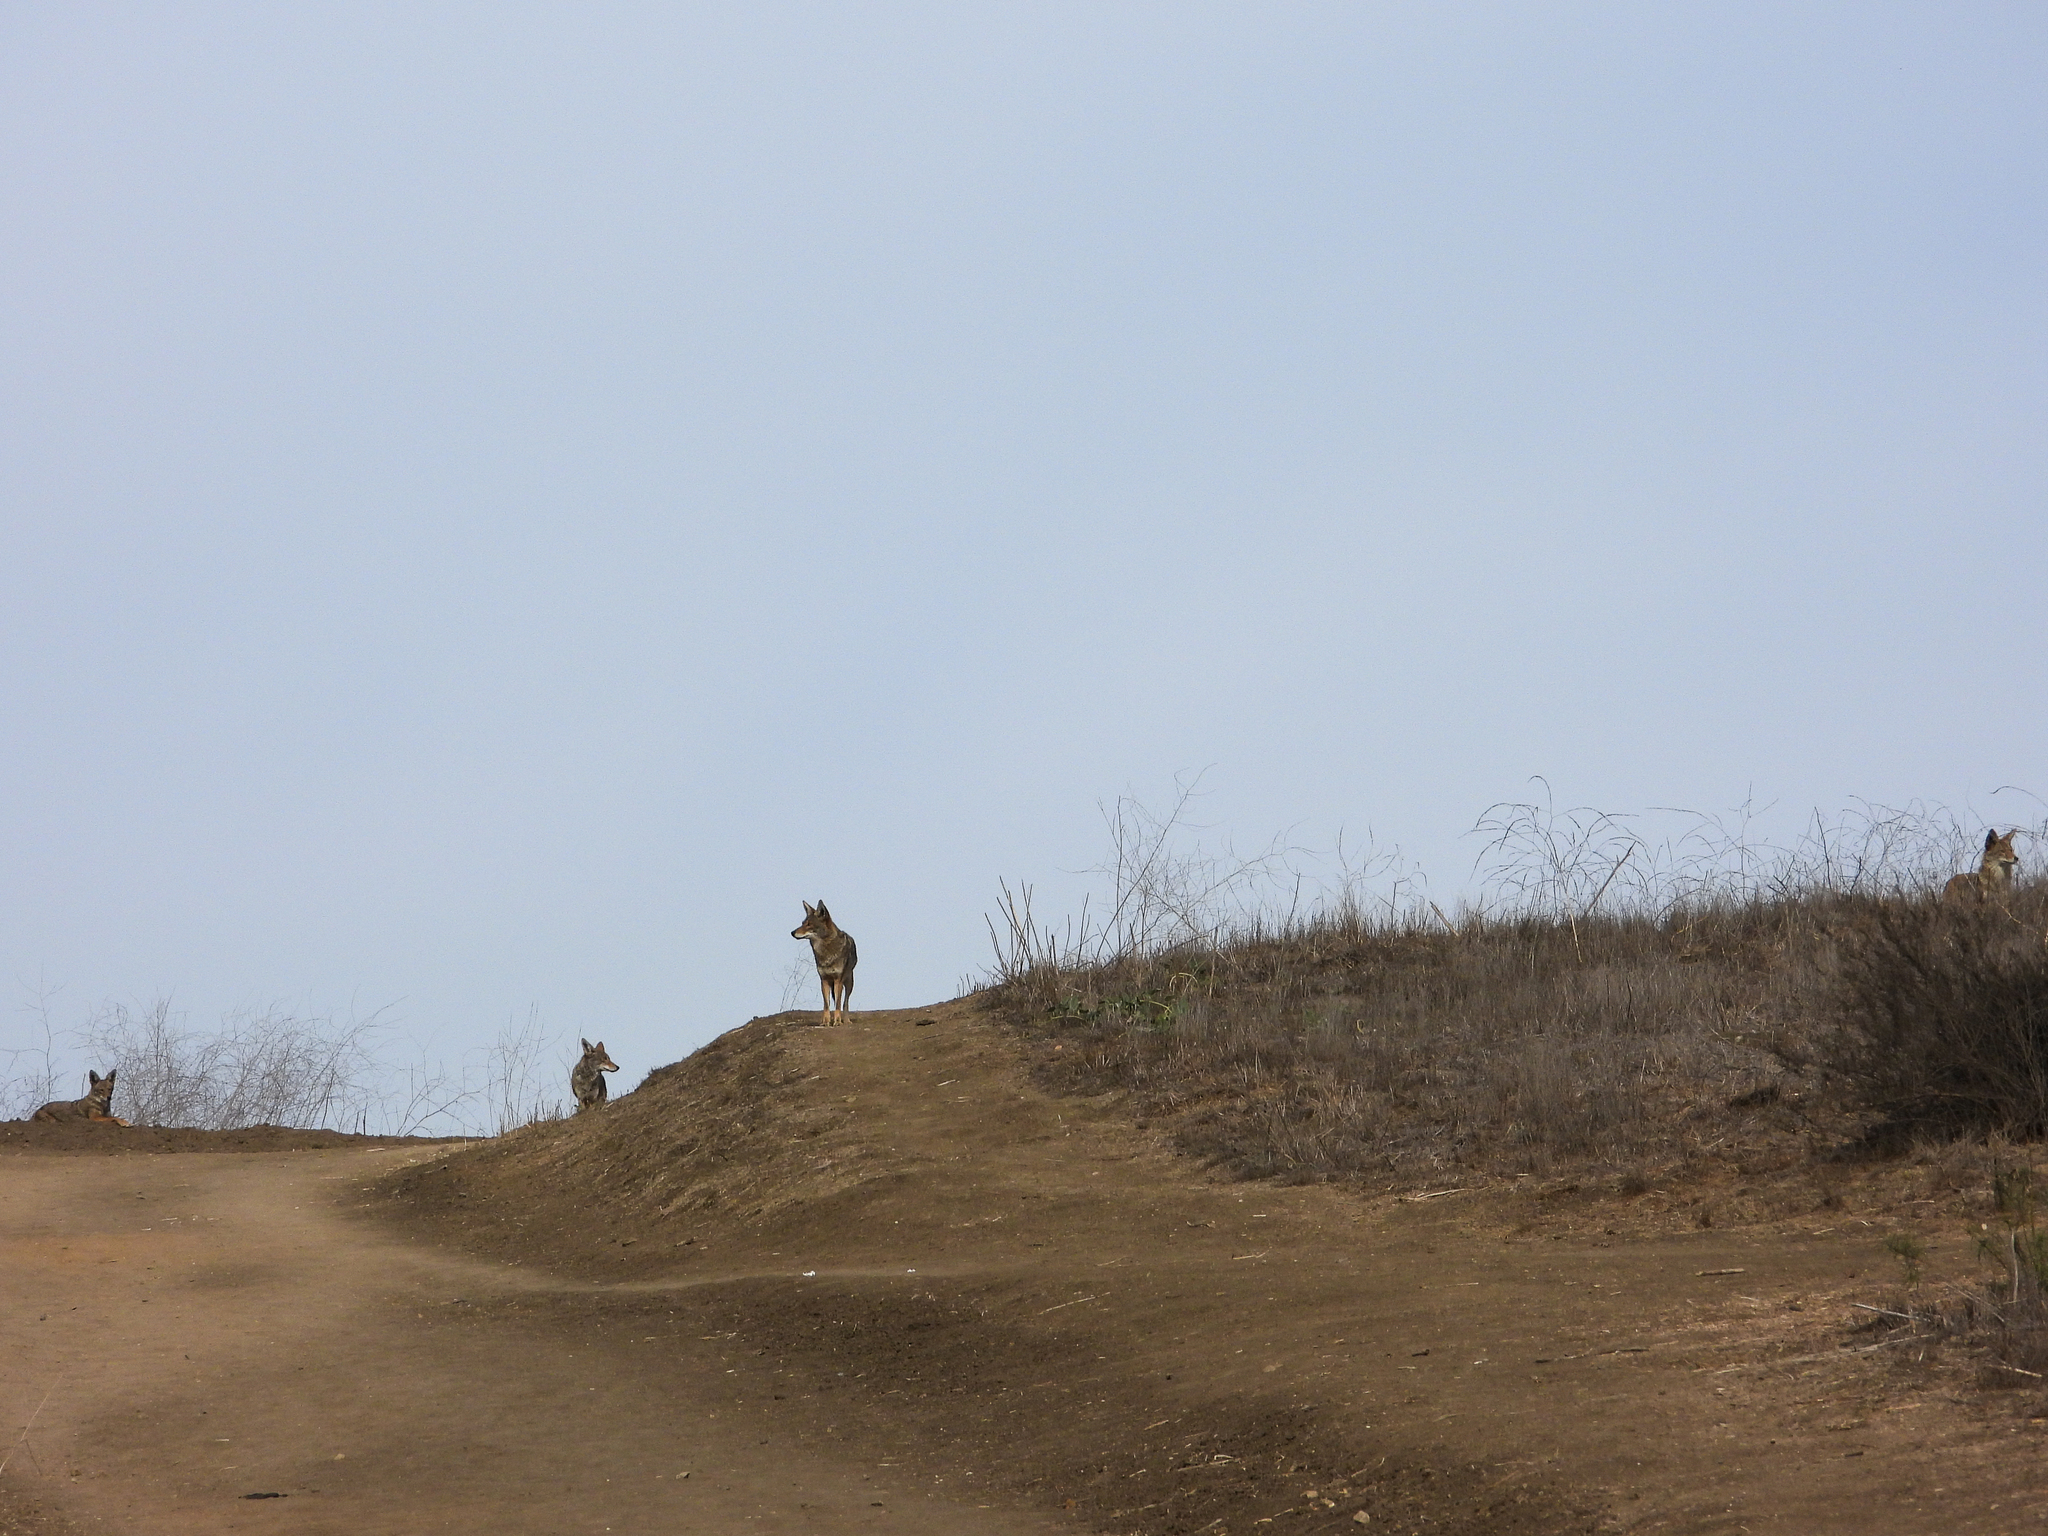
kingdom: Animalia
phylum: Chordata
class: Mammalia
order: Carnivora
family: Canidae
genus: Canis
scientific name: Canis latrans
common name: Coyote
